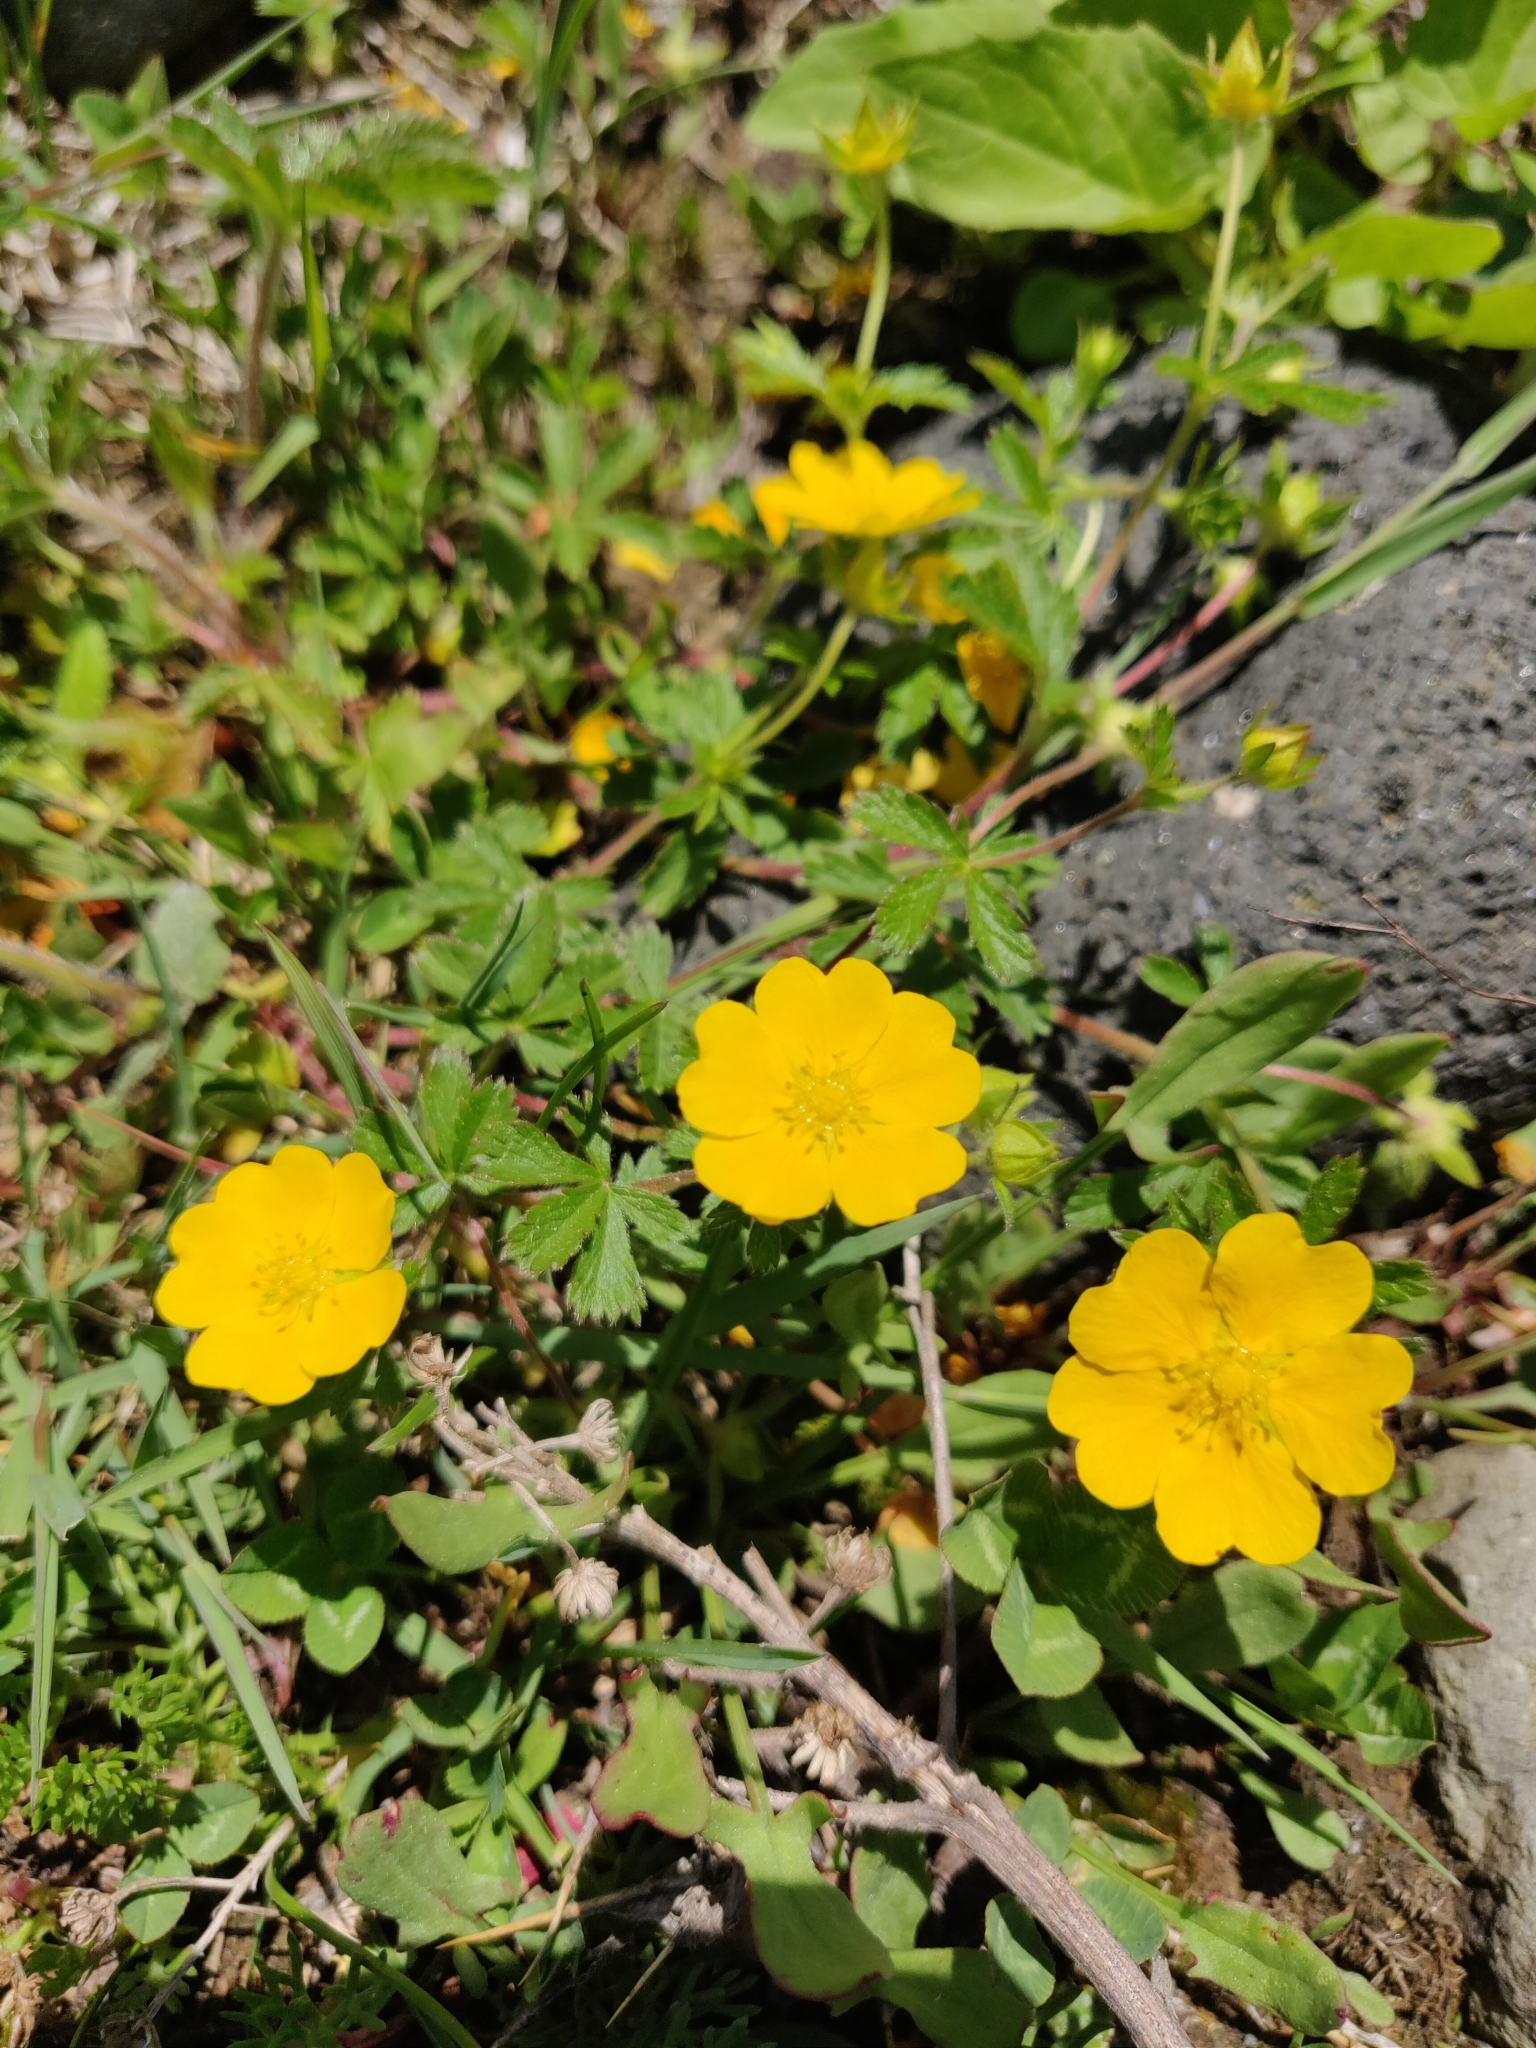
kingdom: Plantae
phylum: Tracheophyta
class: Magnoliopsida
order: Rosales
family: Rosaceae
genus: Potentilla
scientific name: Potentilla crantzii
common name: Alpine cinquefoil
